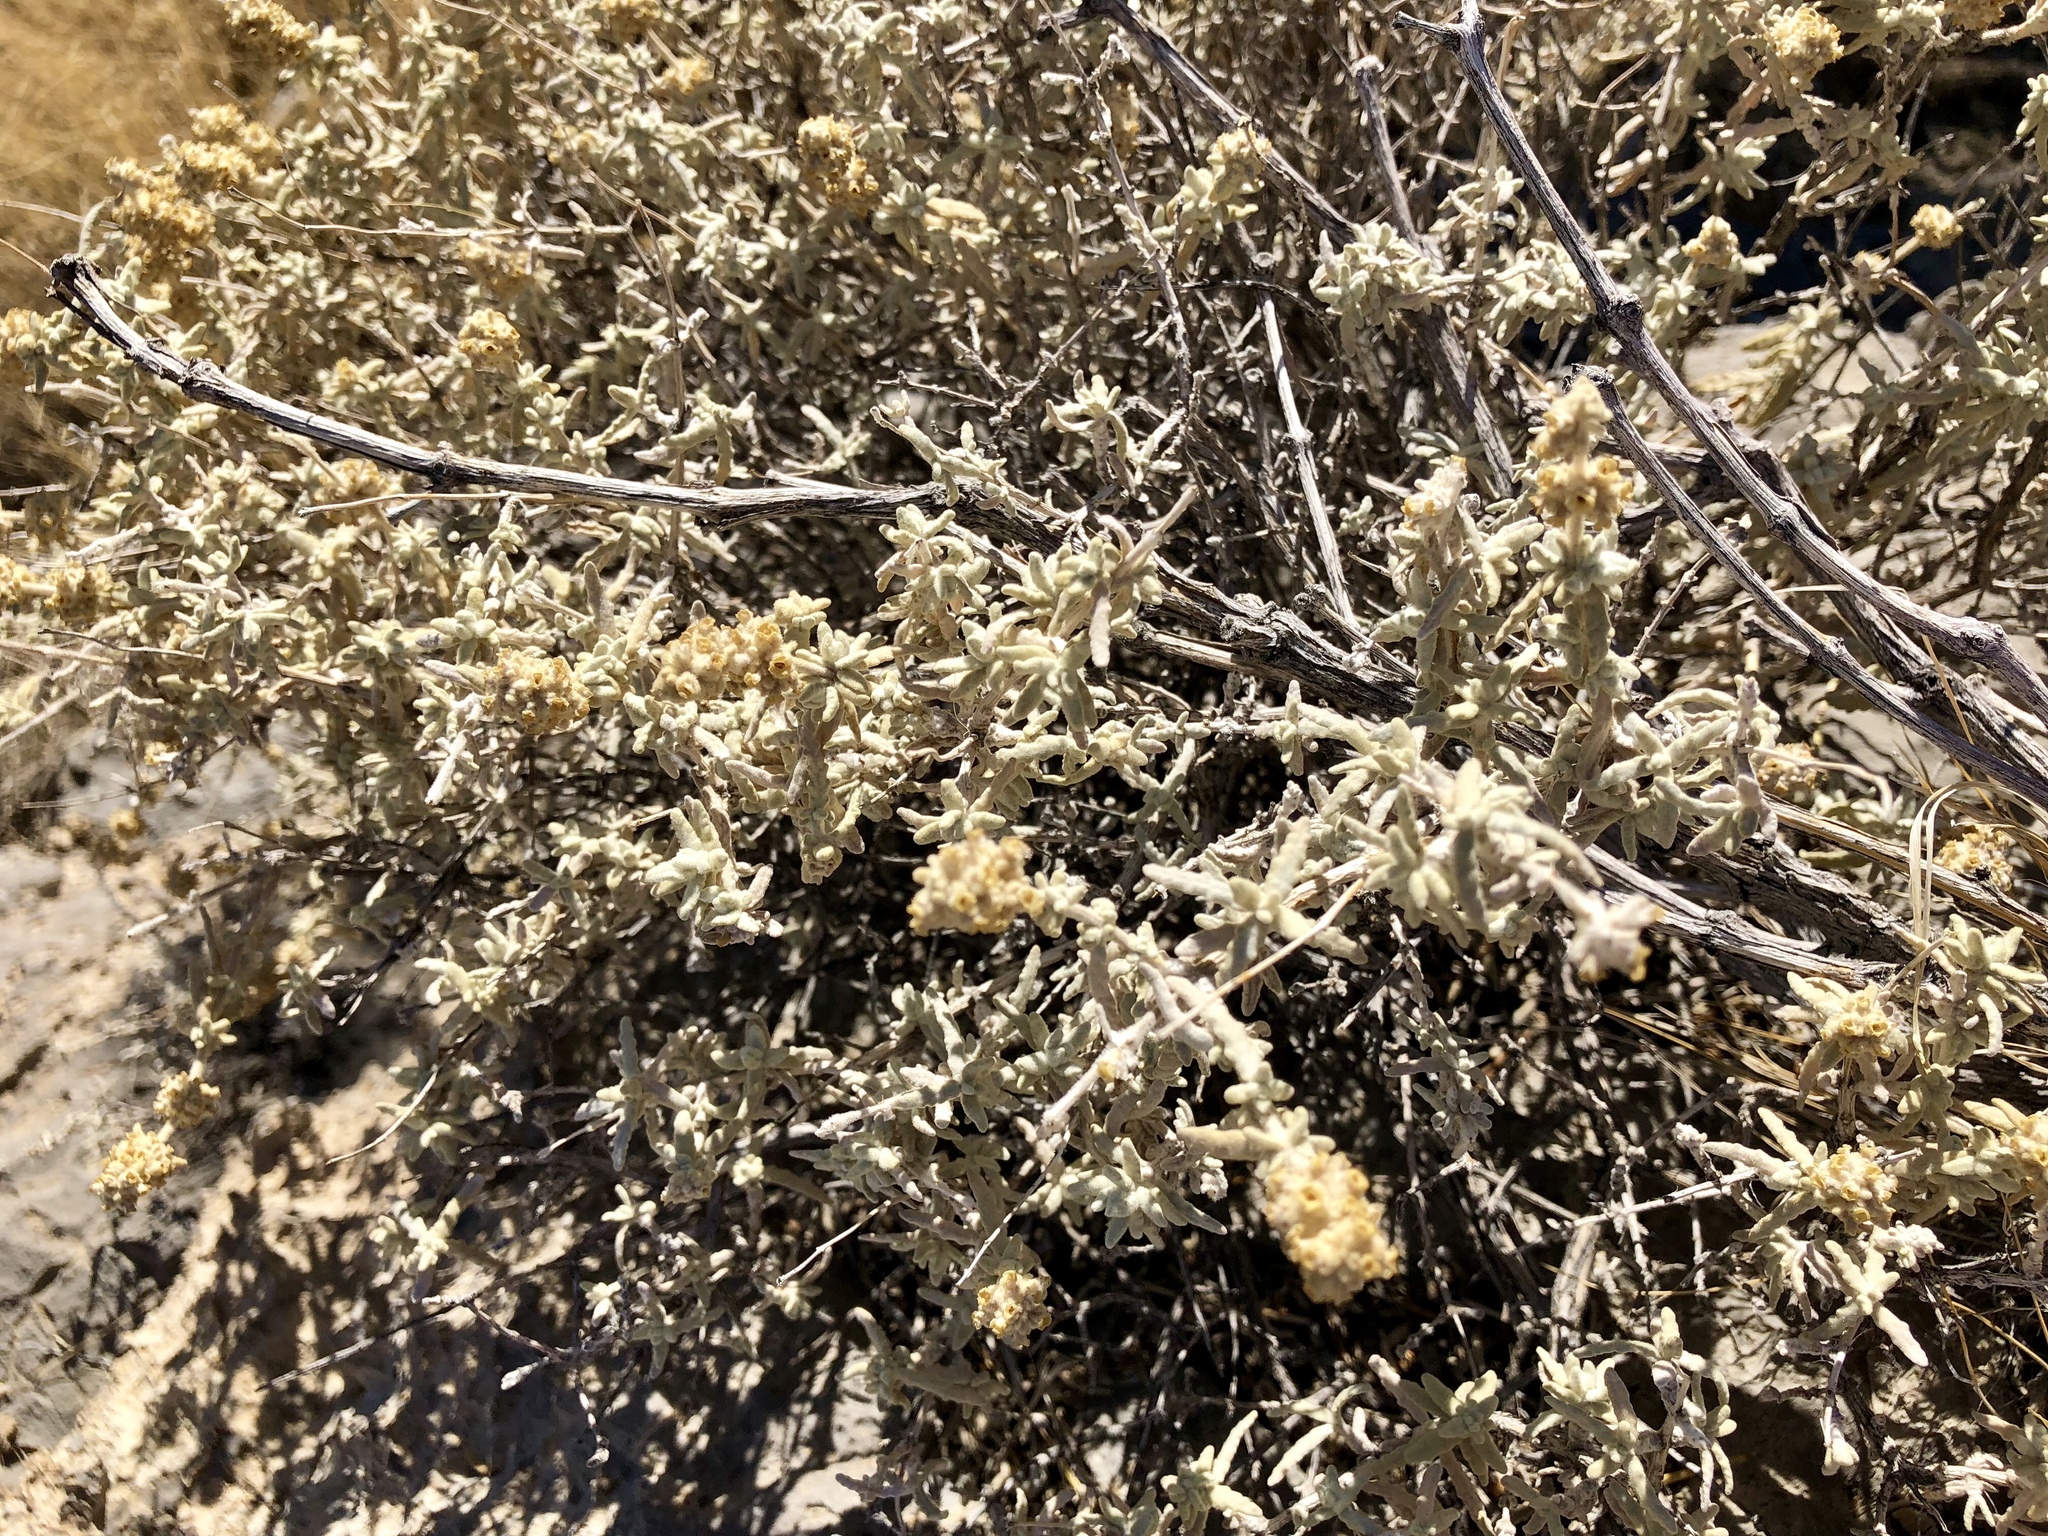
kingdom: Plantae
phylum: Tracheophyta
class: Magnoliopsida
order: Lamiales
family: Scrophulariaceae
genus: Buddleja
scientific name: Buddleja utahensis
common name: Utah butterfly-bush
